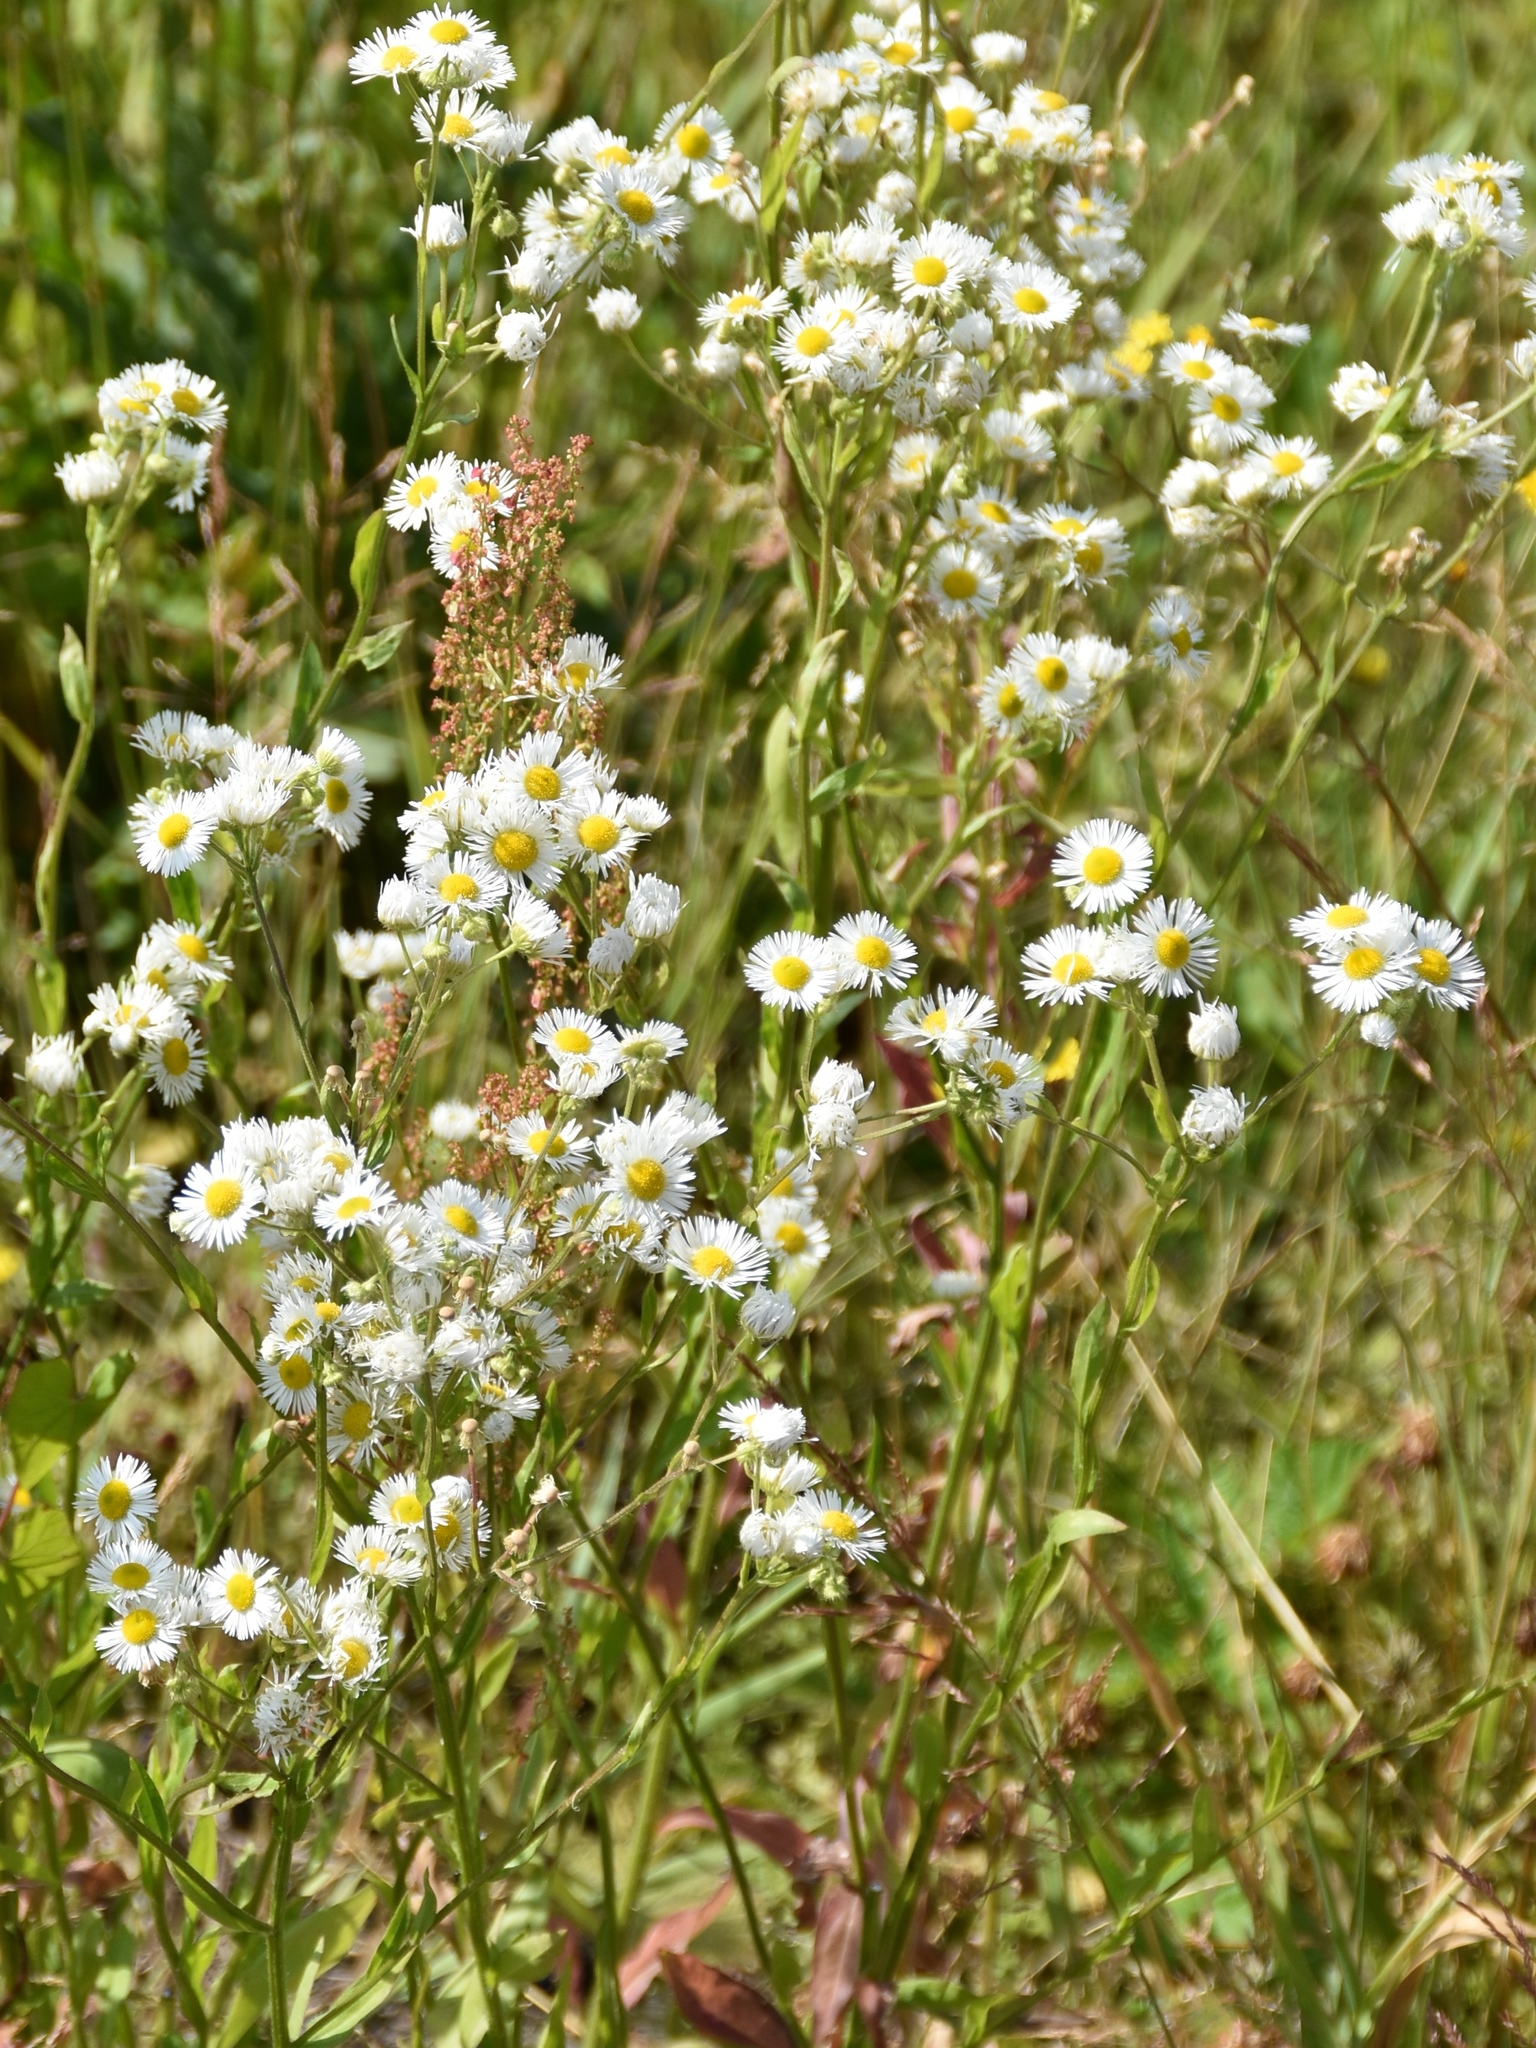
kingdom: Plantae
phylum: Tracheophyta
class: Magnoliopsida
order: Asterales
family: Asteraceae
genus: Erigeron
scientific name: Erigeron annuus
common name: Tall fleabane
